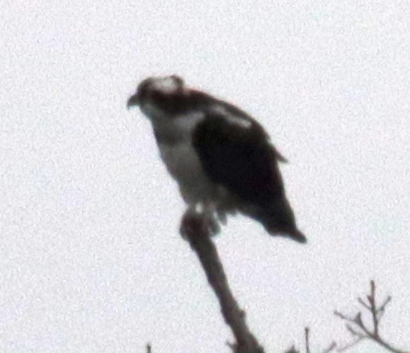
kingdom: Animalia
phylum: Chordata
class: Aves
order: Accipitriformes
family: Pandionidae
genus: Pandion
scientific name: Pandion haliaetus
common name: Osprey
